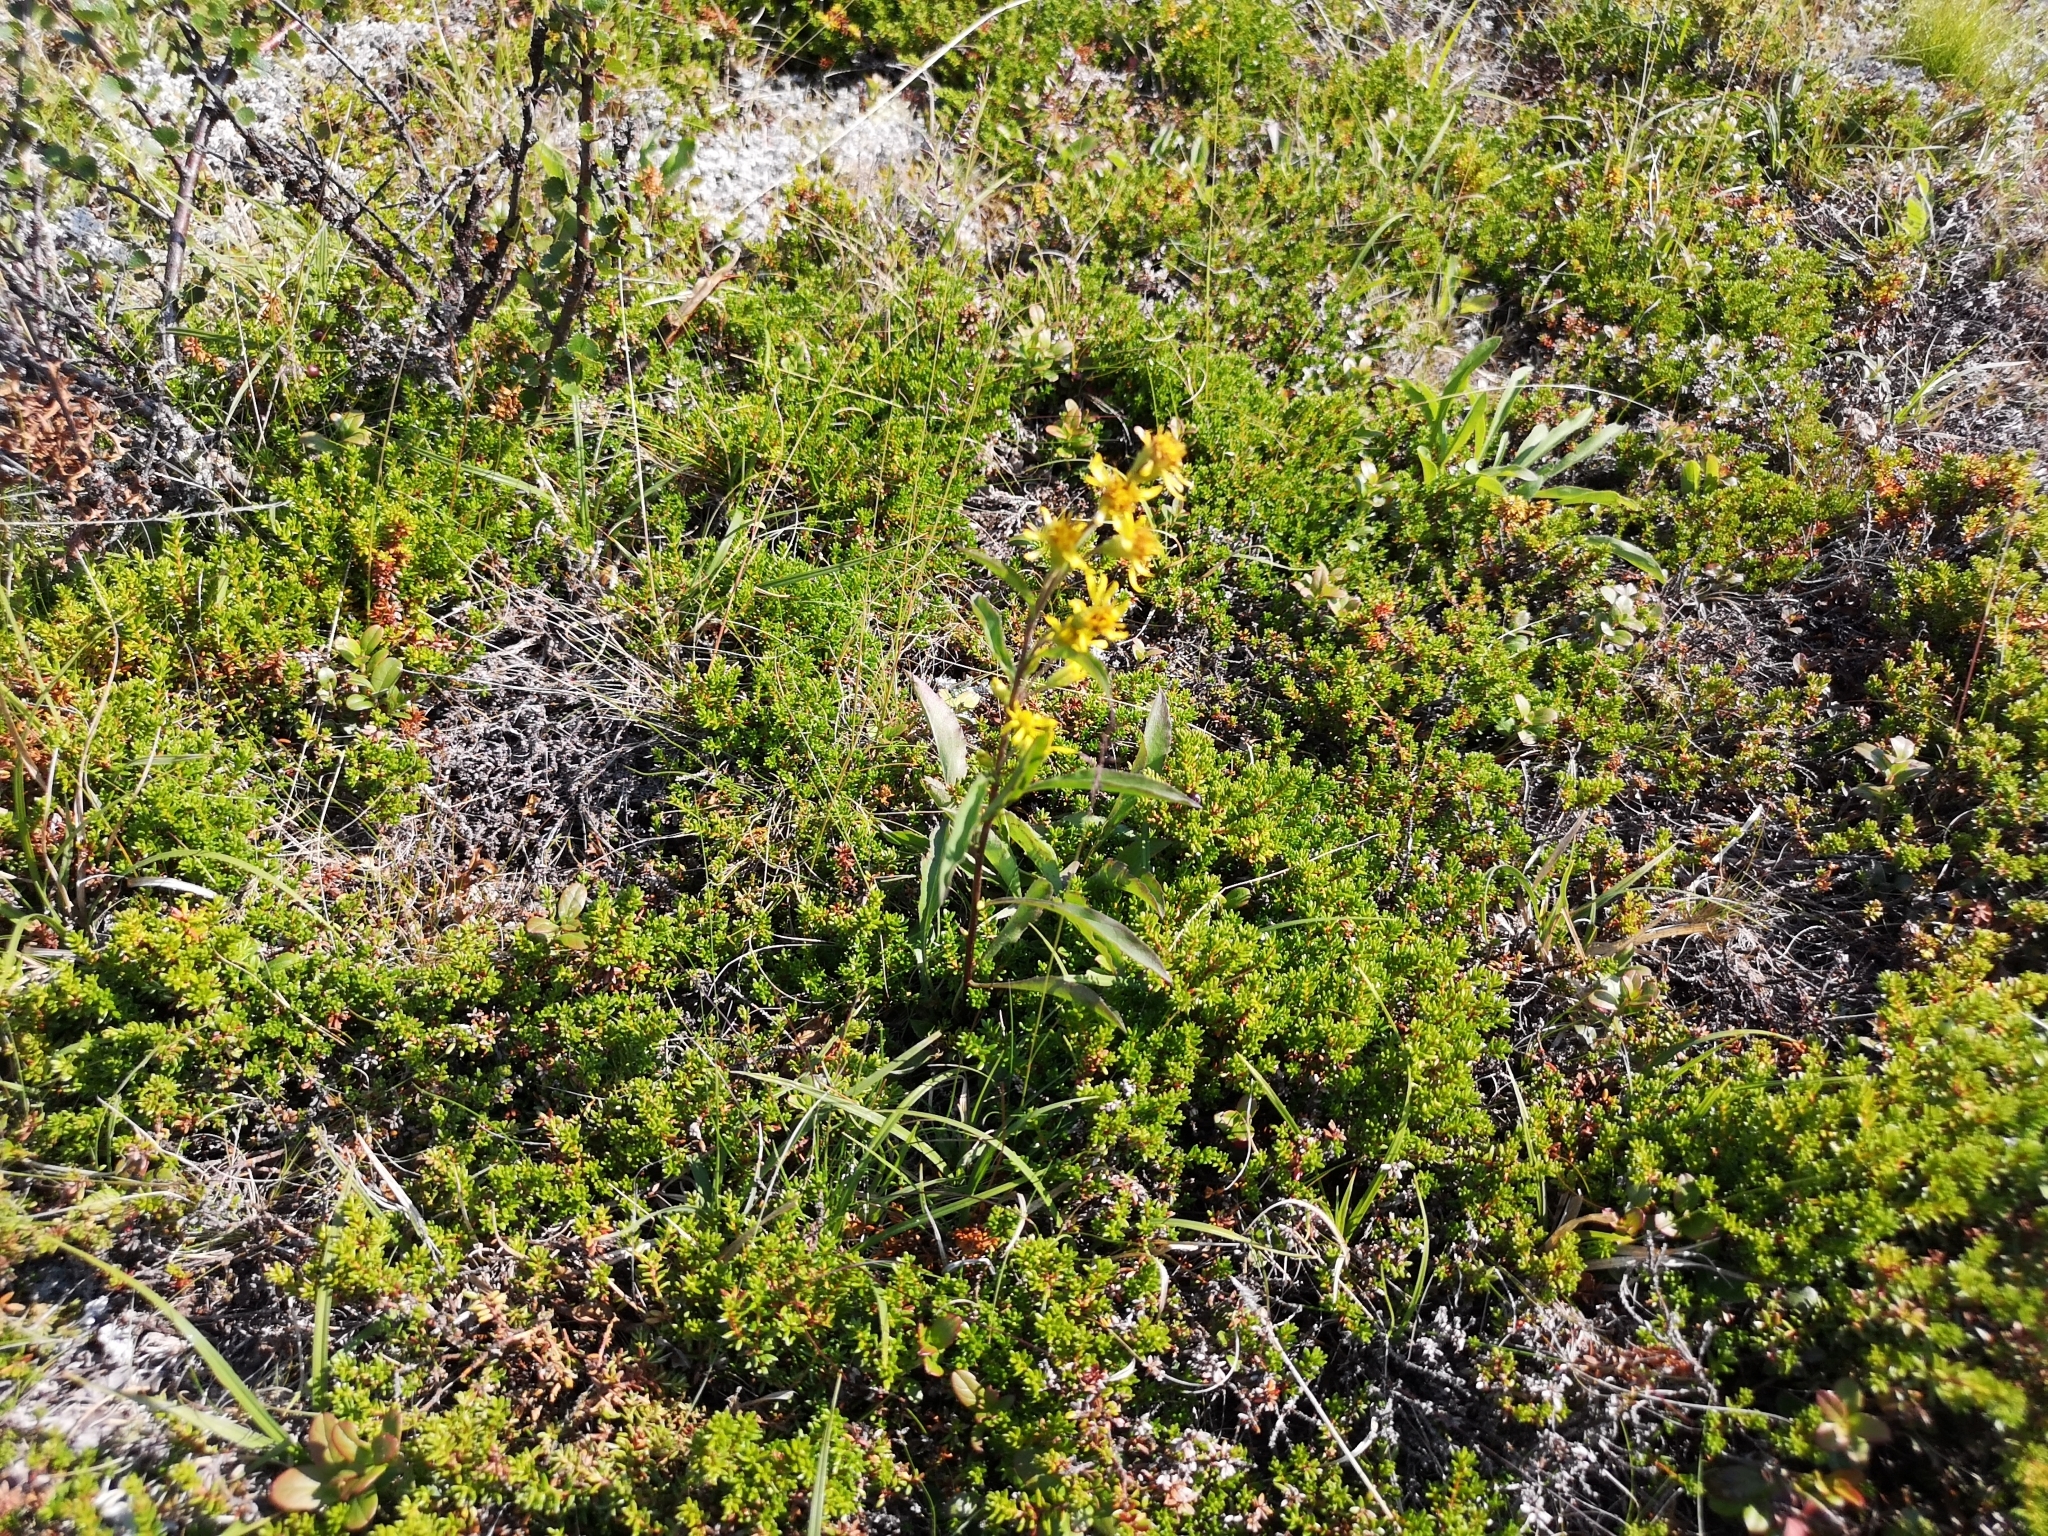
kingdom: Plantae
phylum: Tracheophyta
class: Magnoliopsida
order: Asterales
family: Asteraceae
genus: Solidago
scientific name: Solidago virgaurea
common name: Goldenrod
